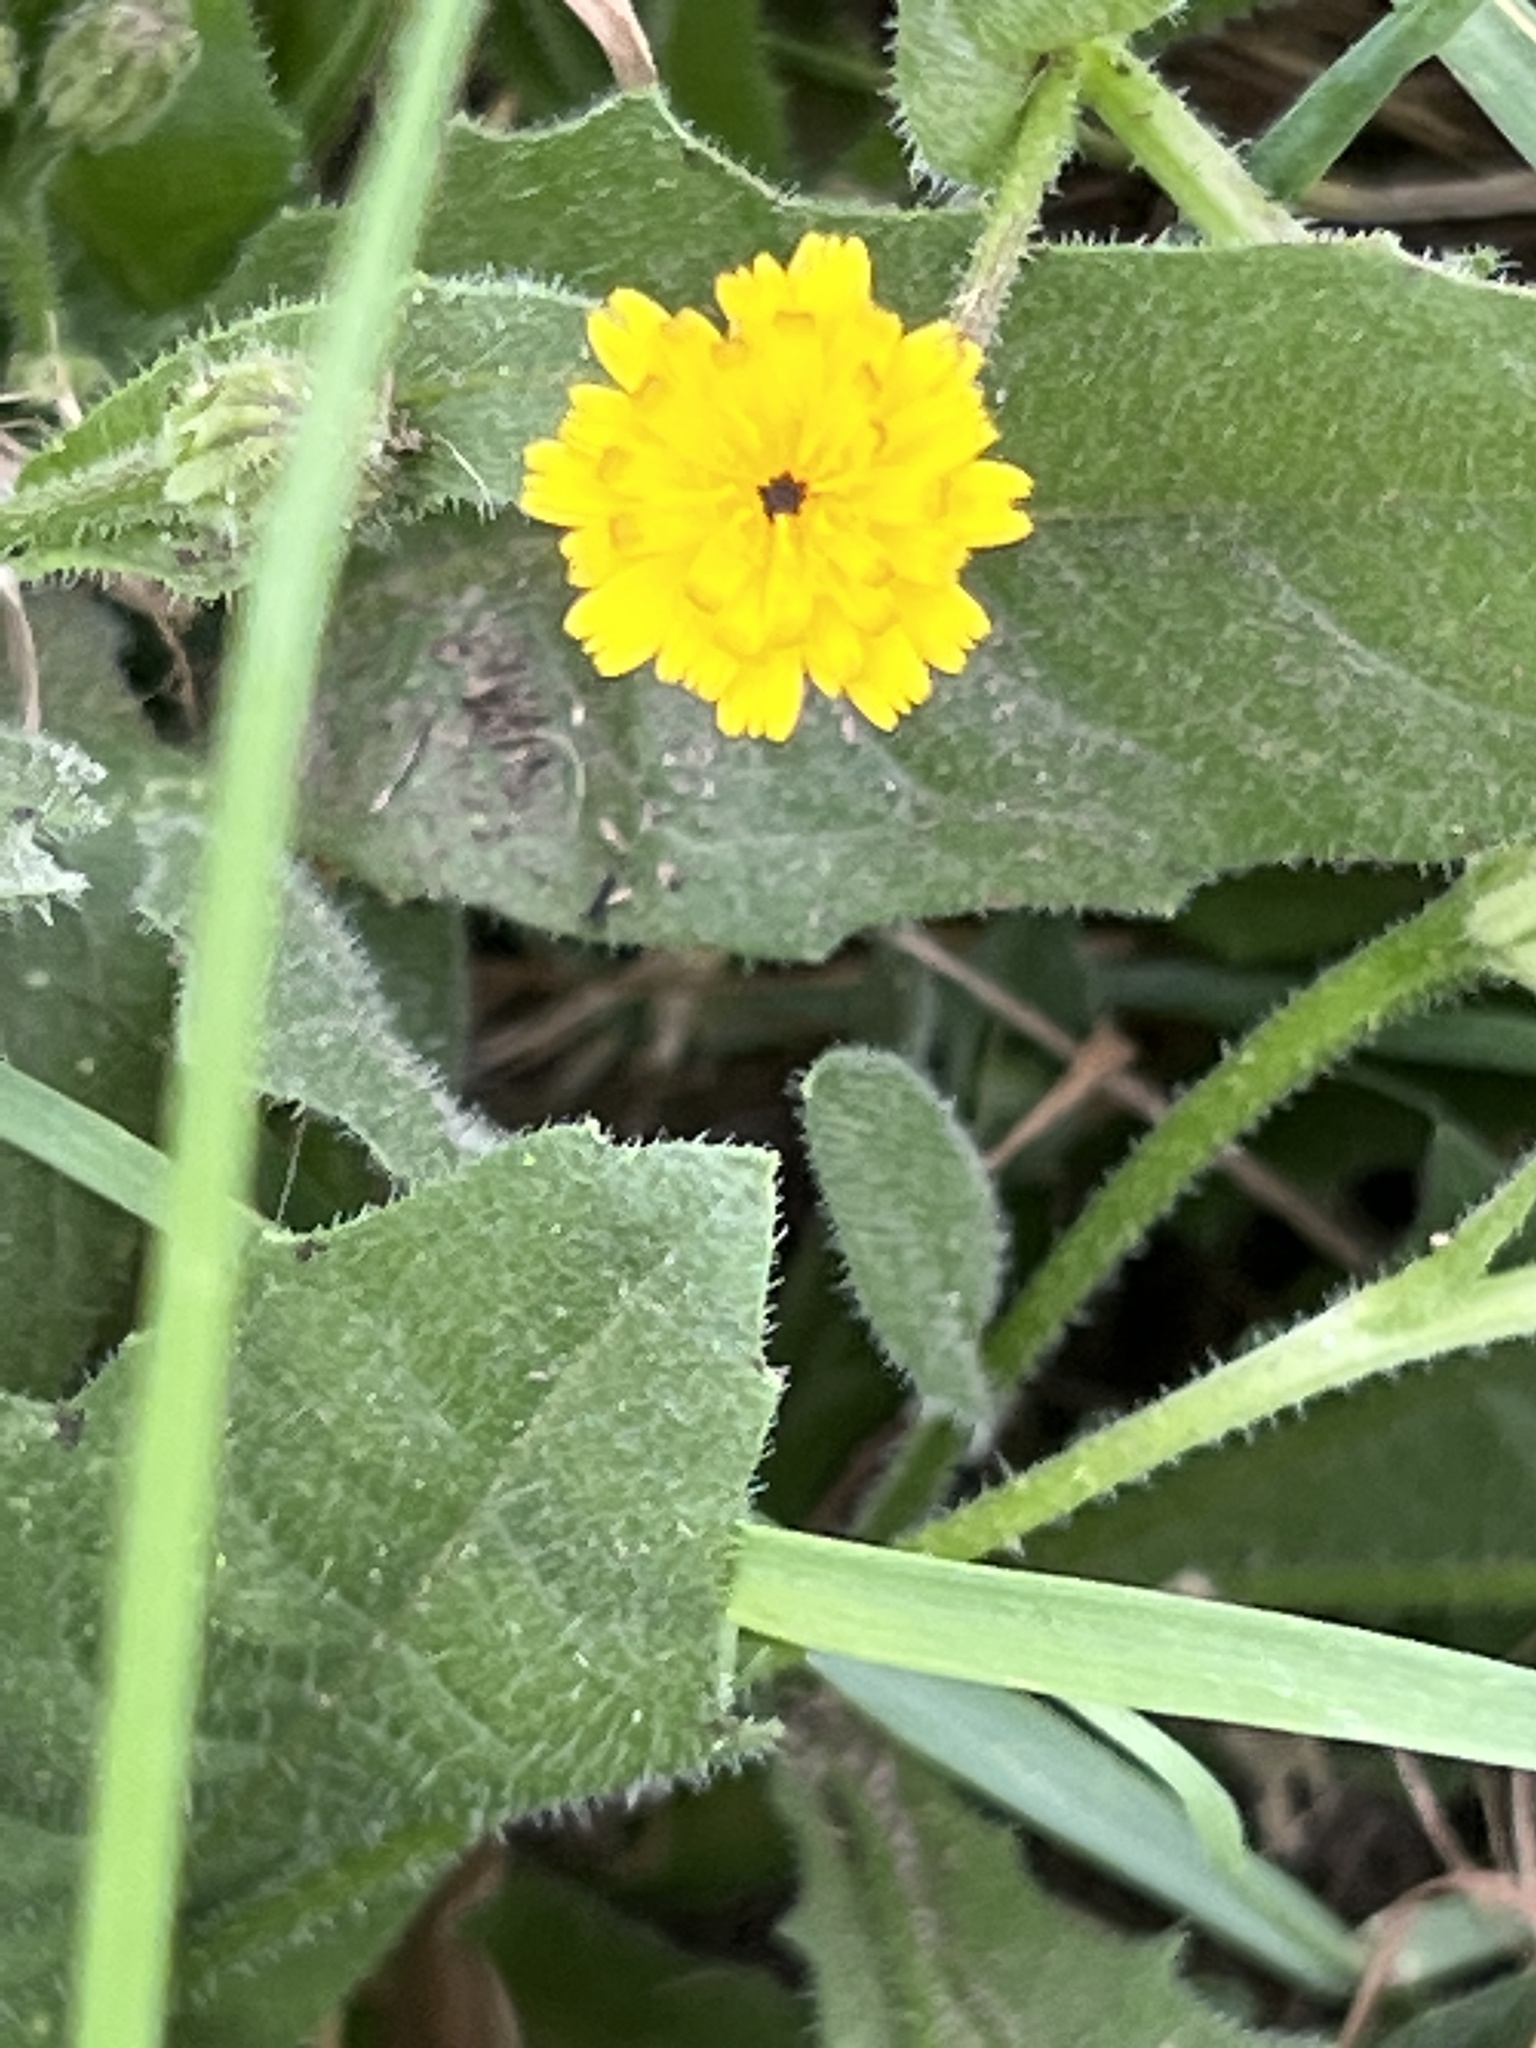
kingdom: Plantae
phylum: Tracheophyta
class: Magnoliopsida
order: Asterales
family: Asteraceae
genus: Hedypnois
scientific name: Hedypnois rhagadioloides
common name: Cretan weed
